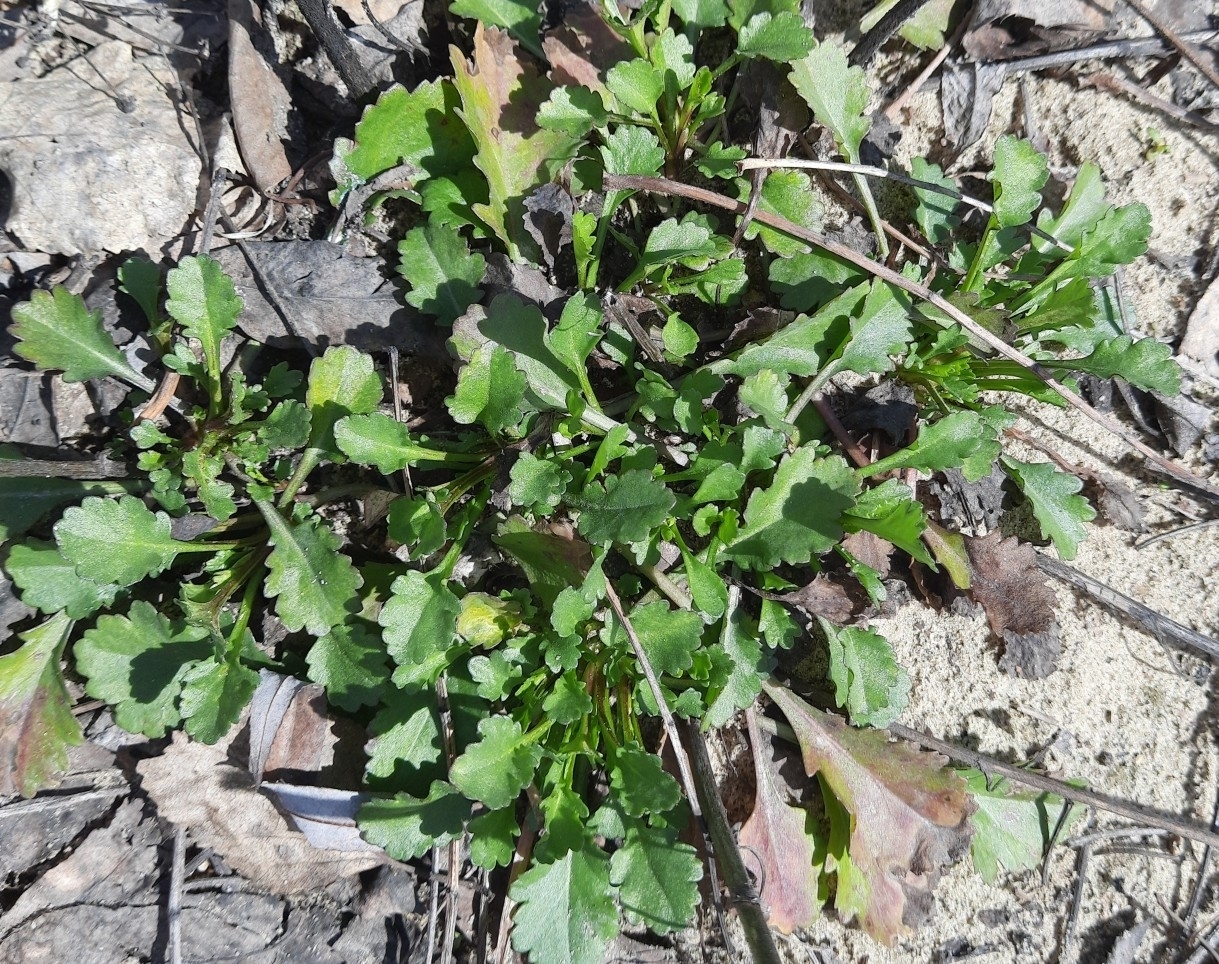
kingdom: Plantae
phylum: Tracheophyta
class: Magnoliopsida
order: Asterales
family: Asteraceae
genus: Leucanthemum
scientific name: Leucanthemum ircutianum
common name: Daisy
